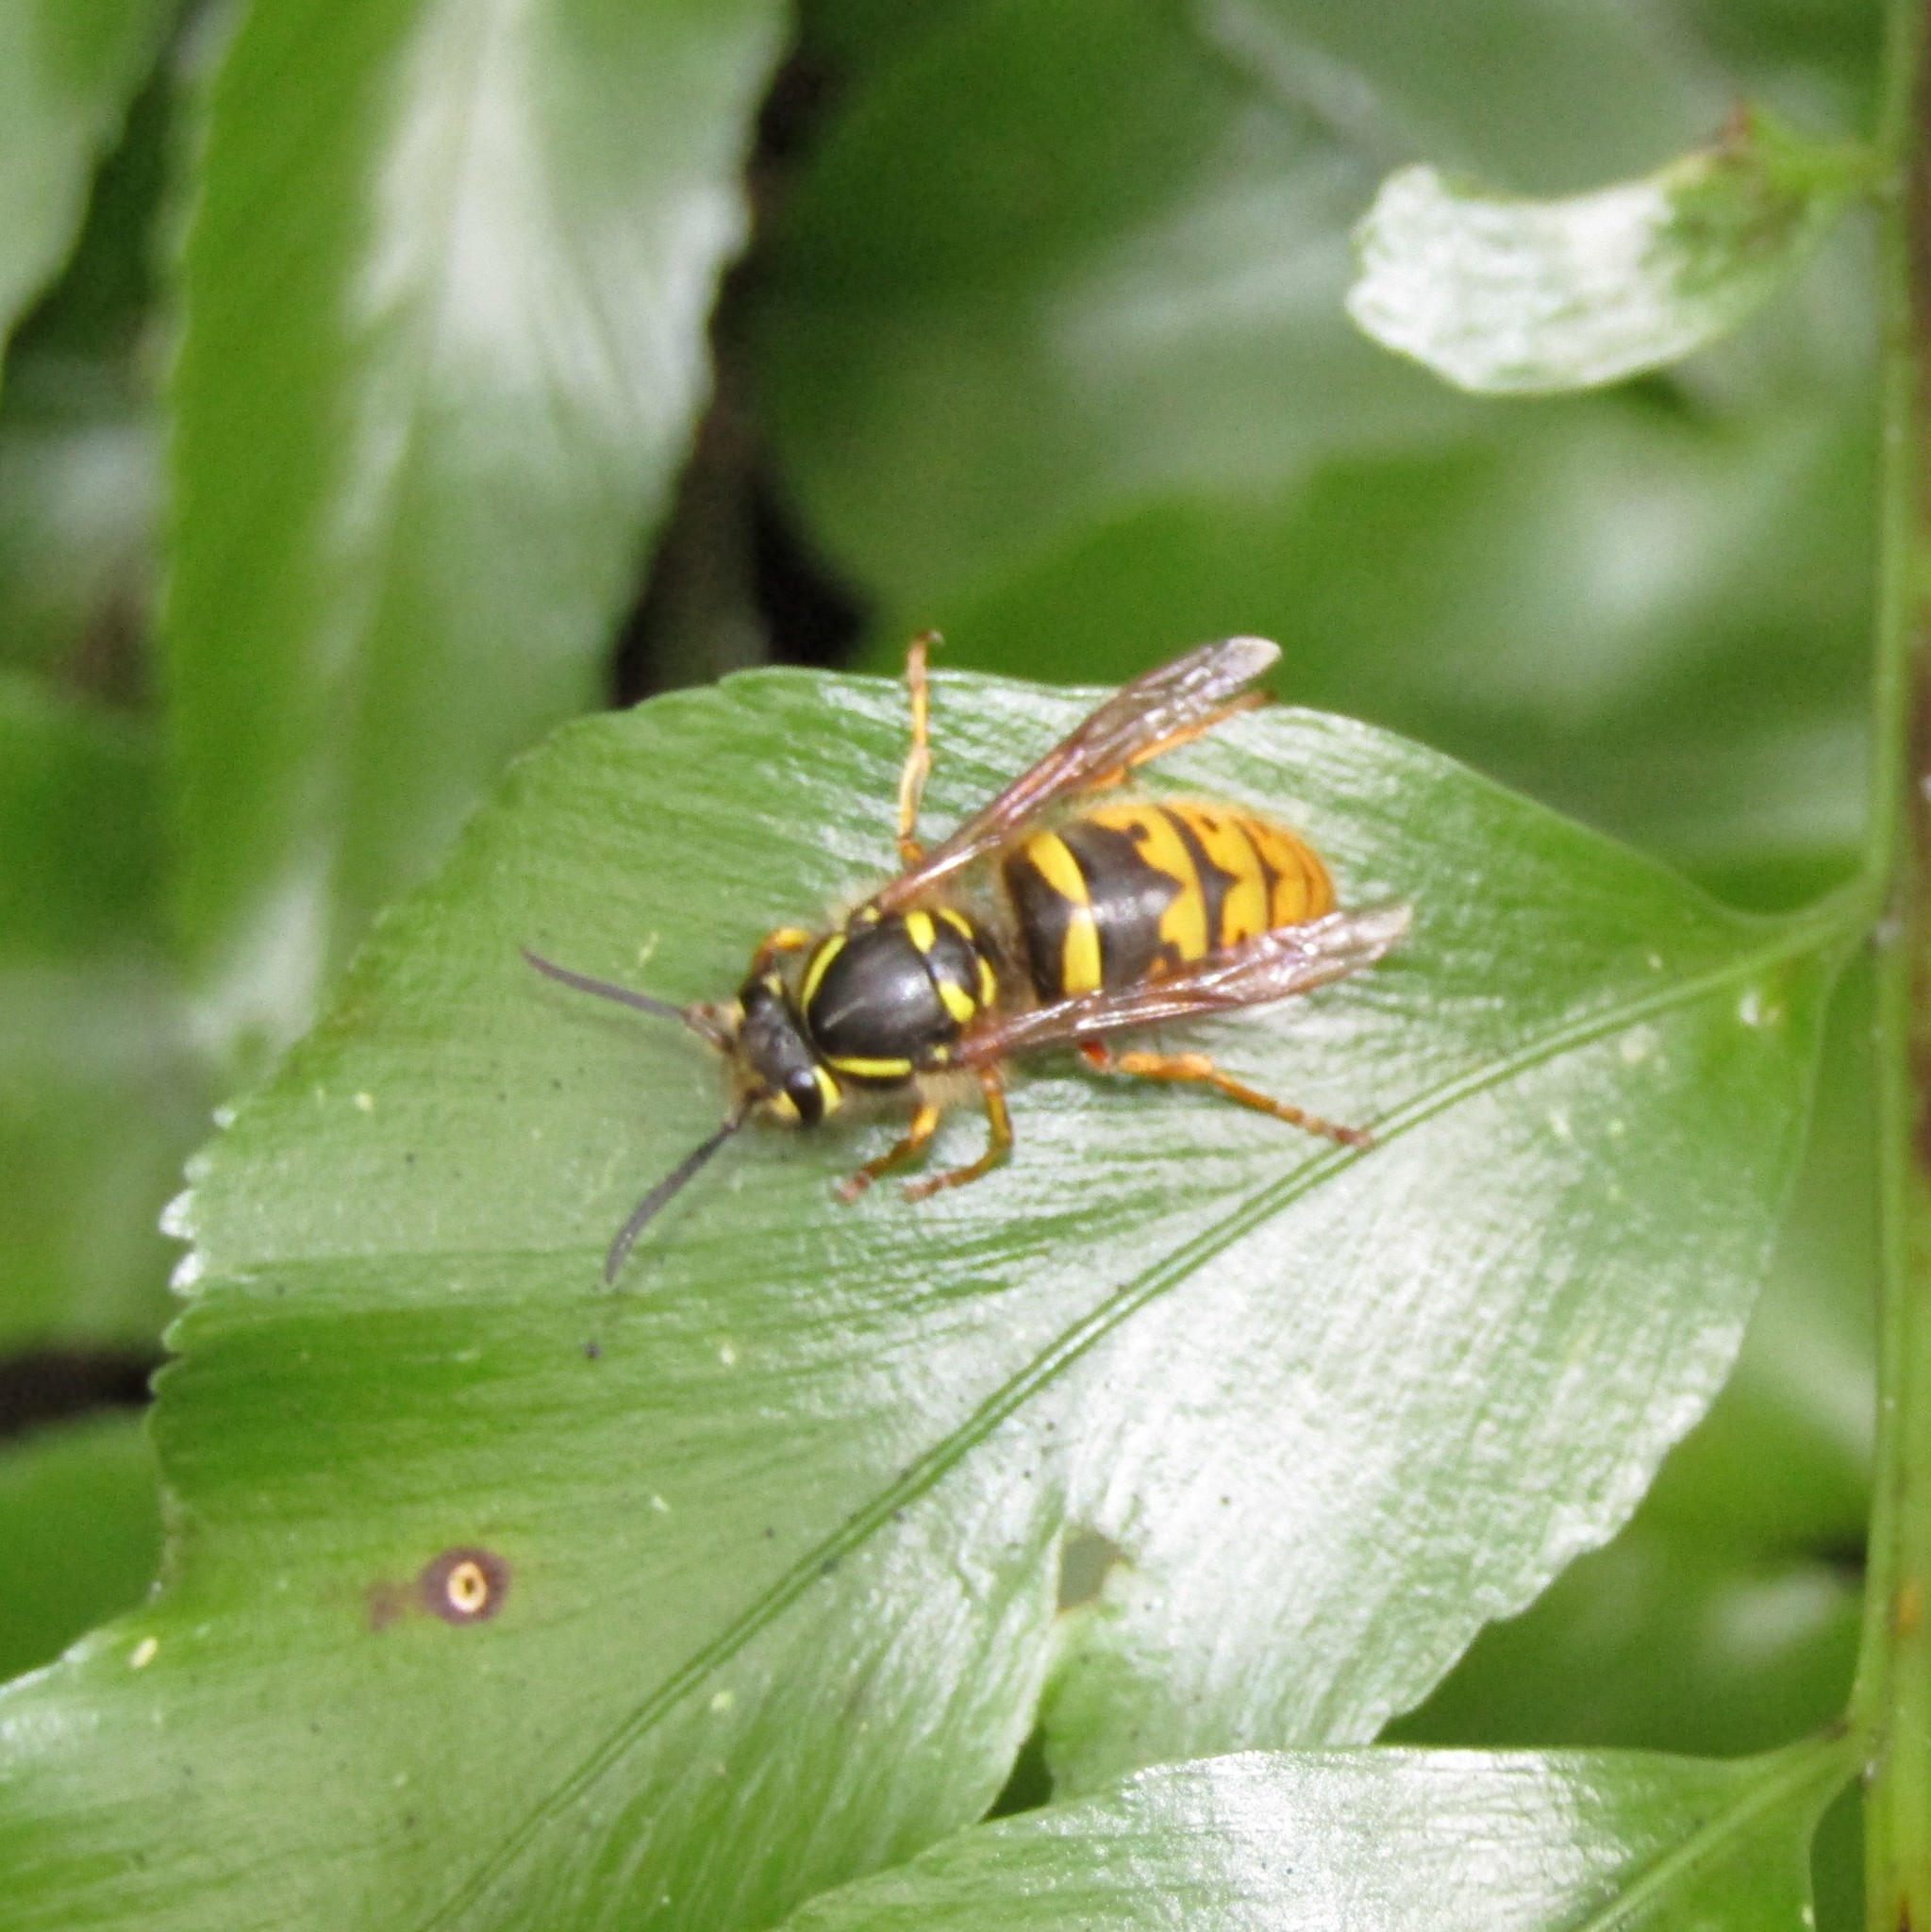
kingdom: Animalia
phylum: Arthropoda
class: Insecta
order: Hymenoptera
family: Vespidae
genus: Vespula
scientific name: Vespula vulgaris
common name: Common wasp
